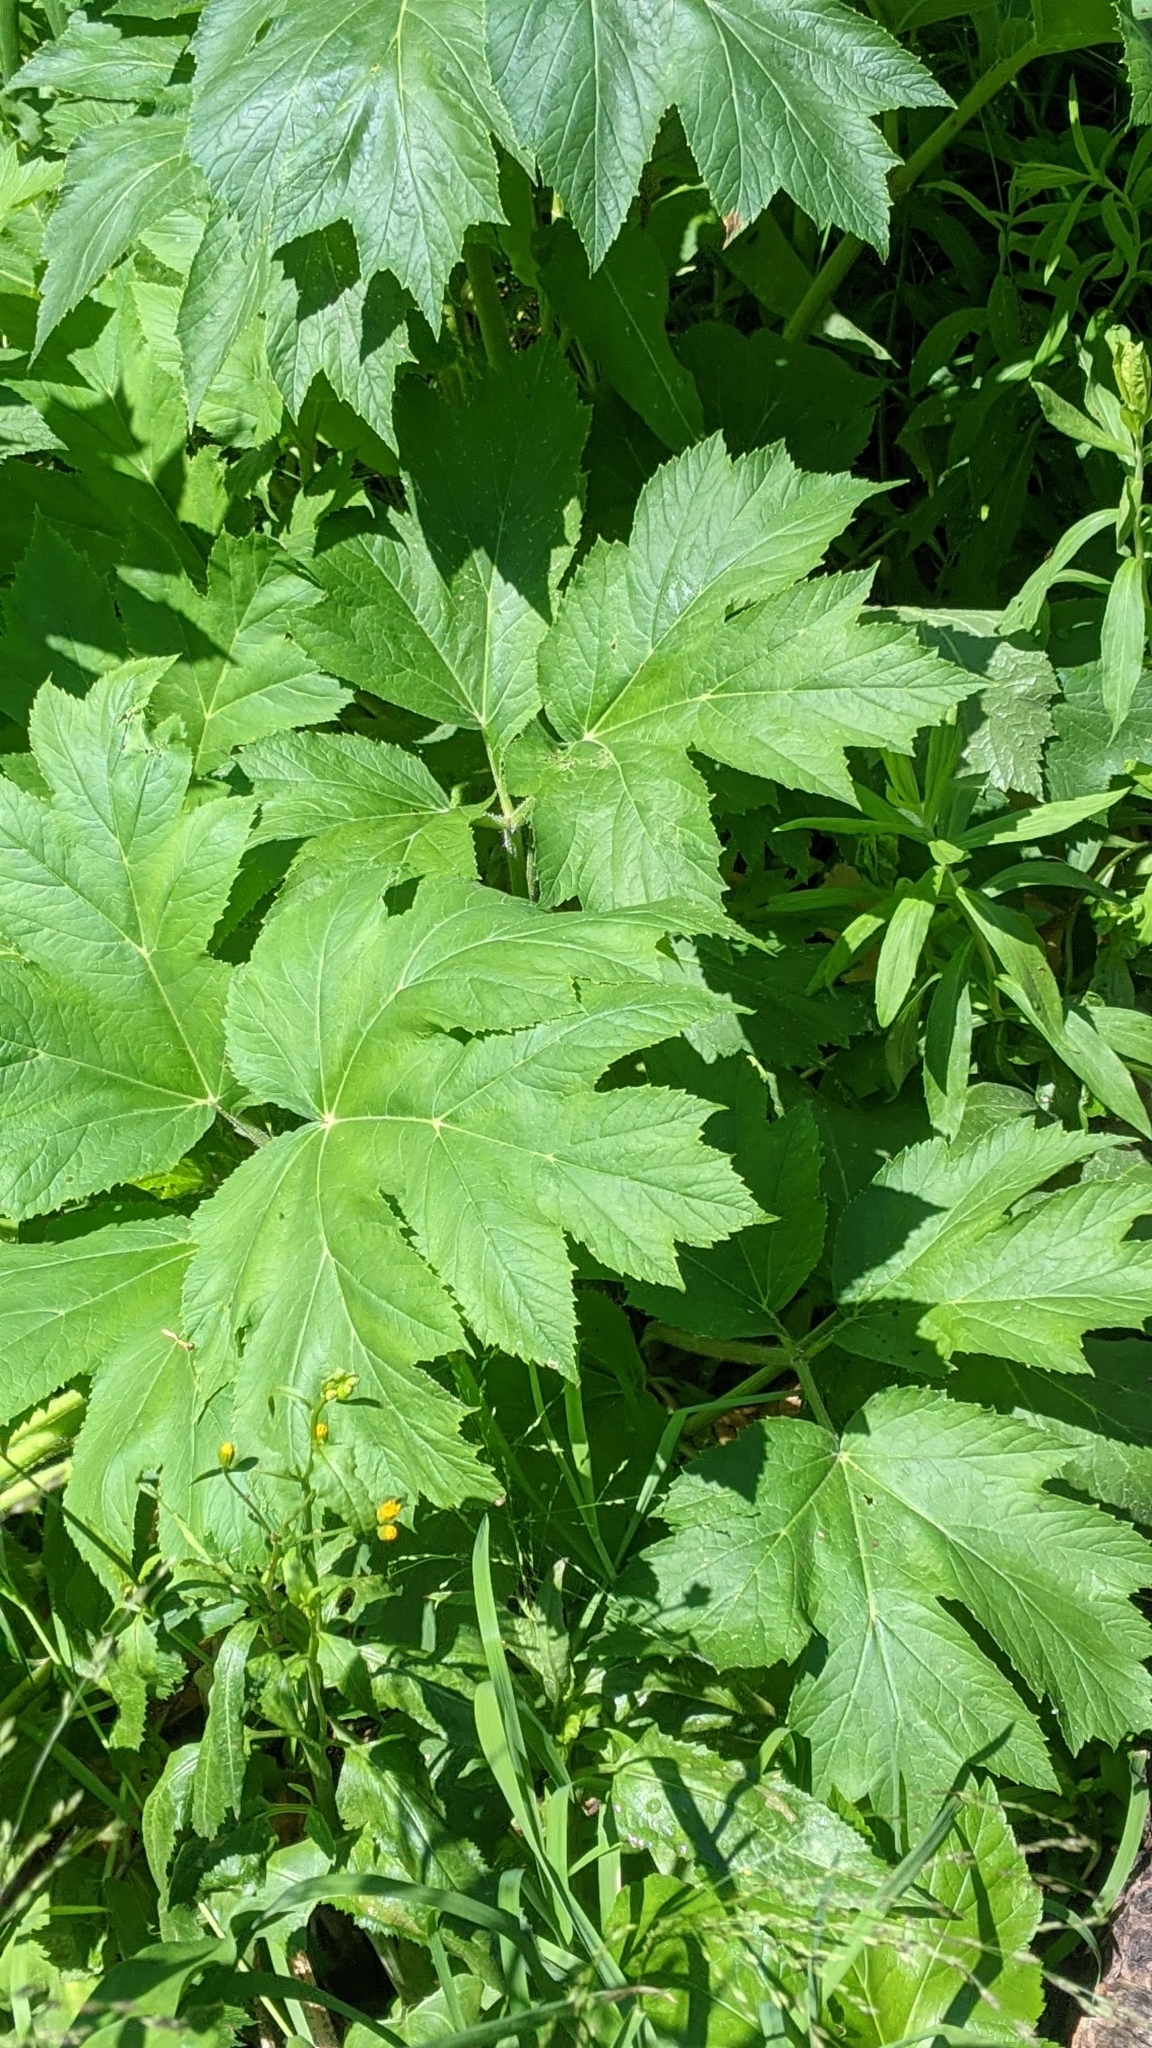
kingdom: Plantae
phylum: Tracheophyta
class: Magnoliopsida
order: Apiales
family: Apiaceae
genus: Heracleum
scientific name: Heracleum maximum
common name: American cow parsnip
